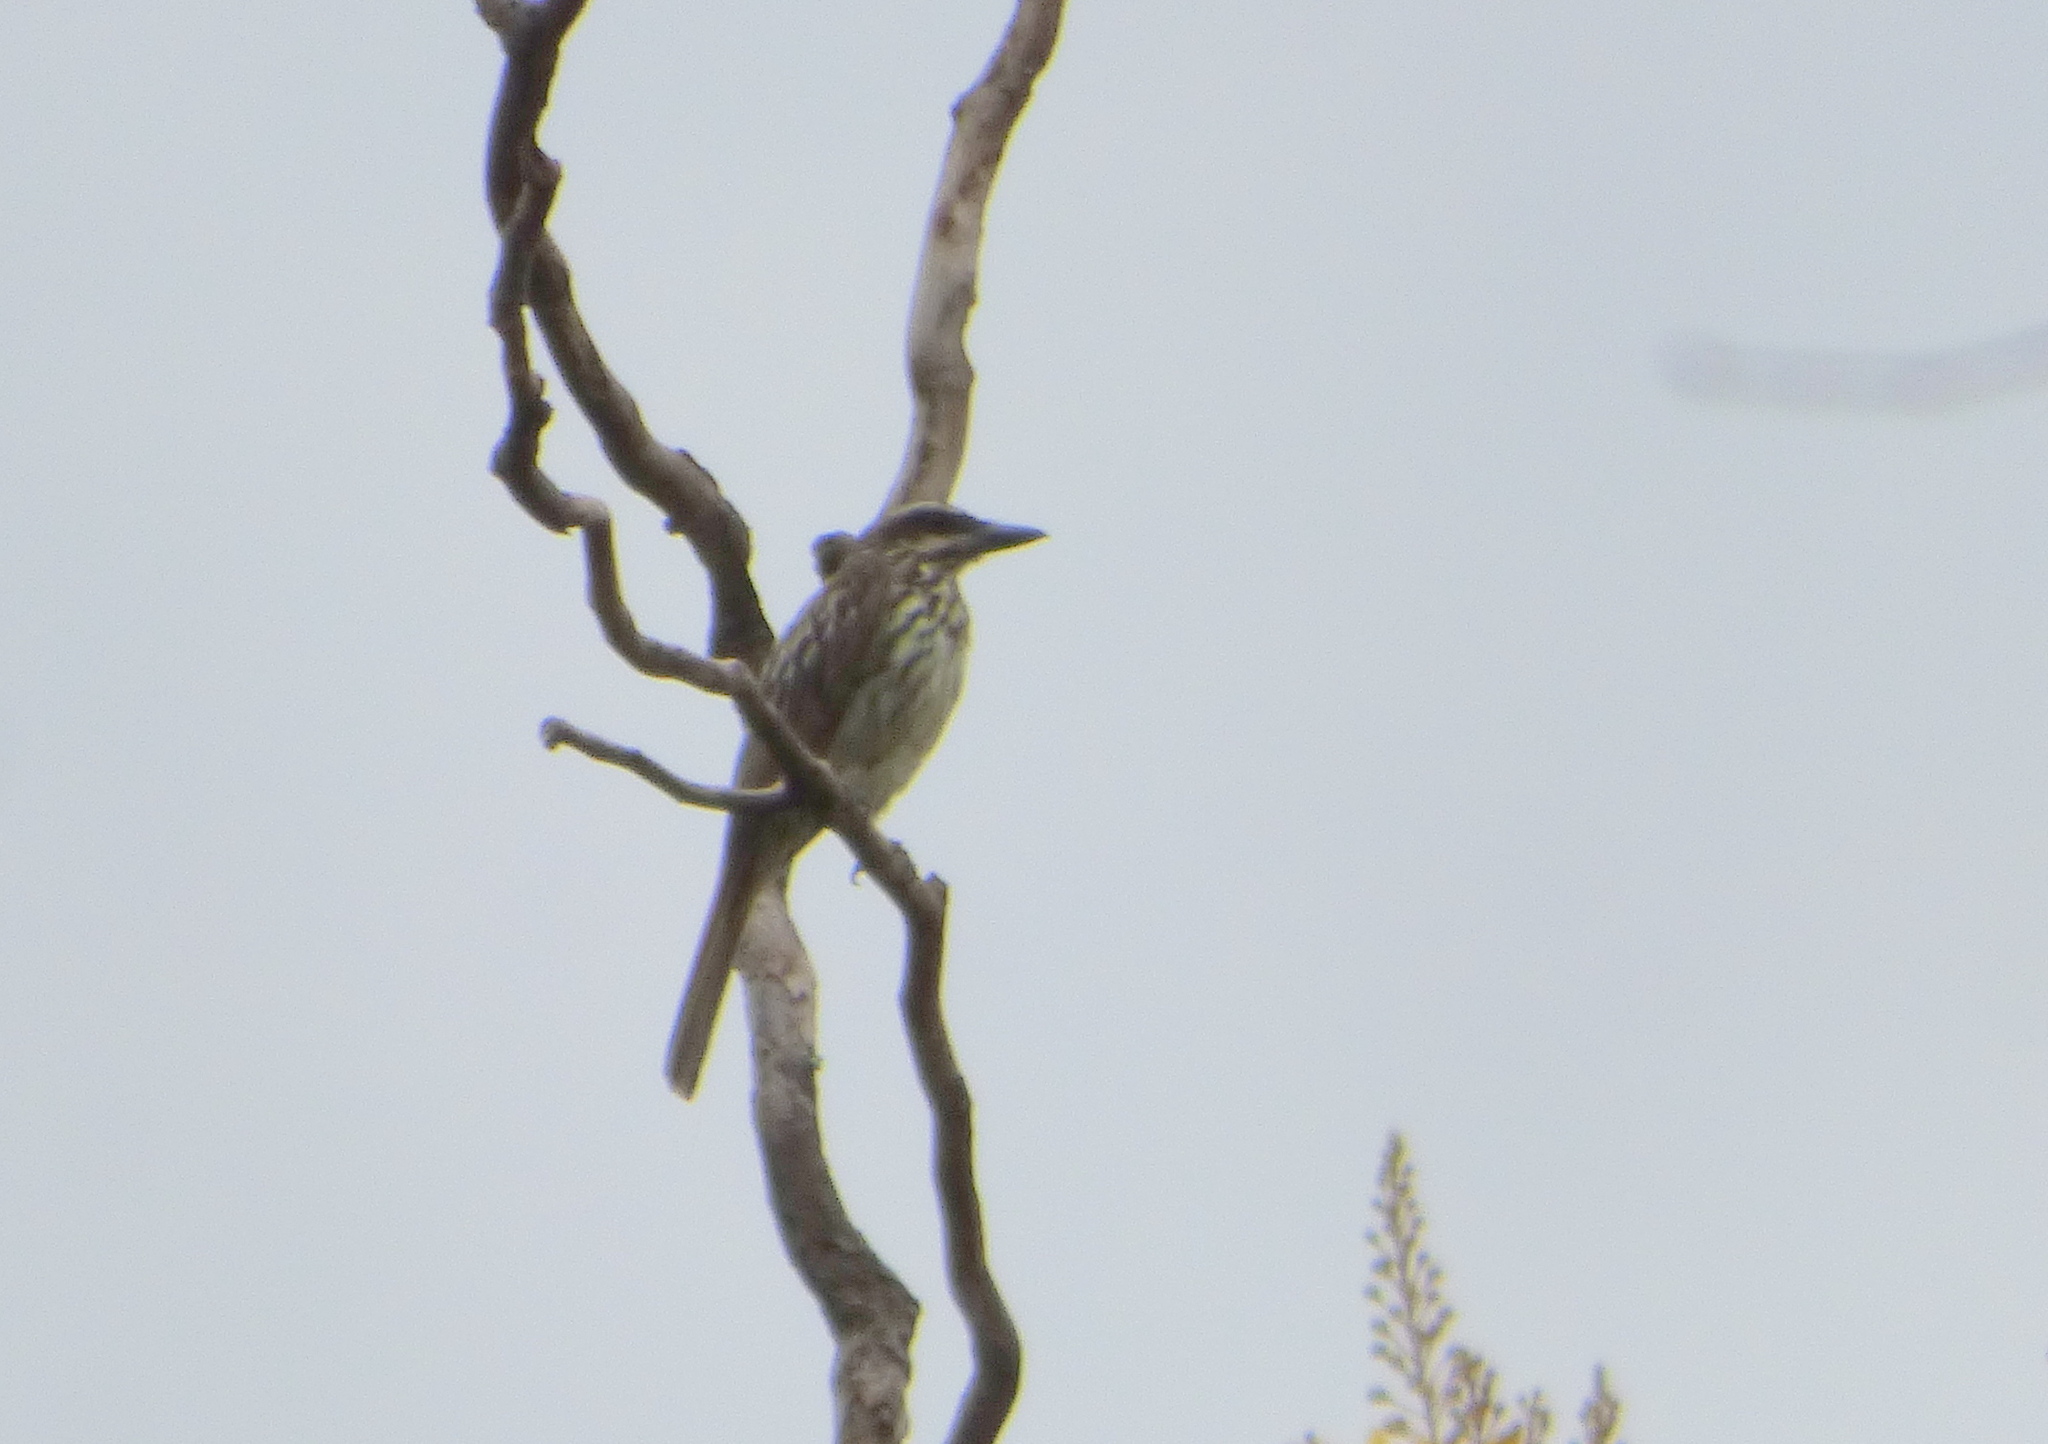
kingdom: Animalia
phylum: Chordata
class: Aves
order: Passeriformes
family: Tyrannidae
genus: Myiodynastes
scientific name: Myiodynastes maculatus
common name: Streaked flycatcher
